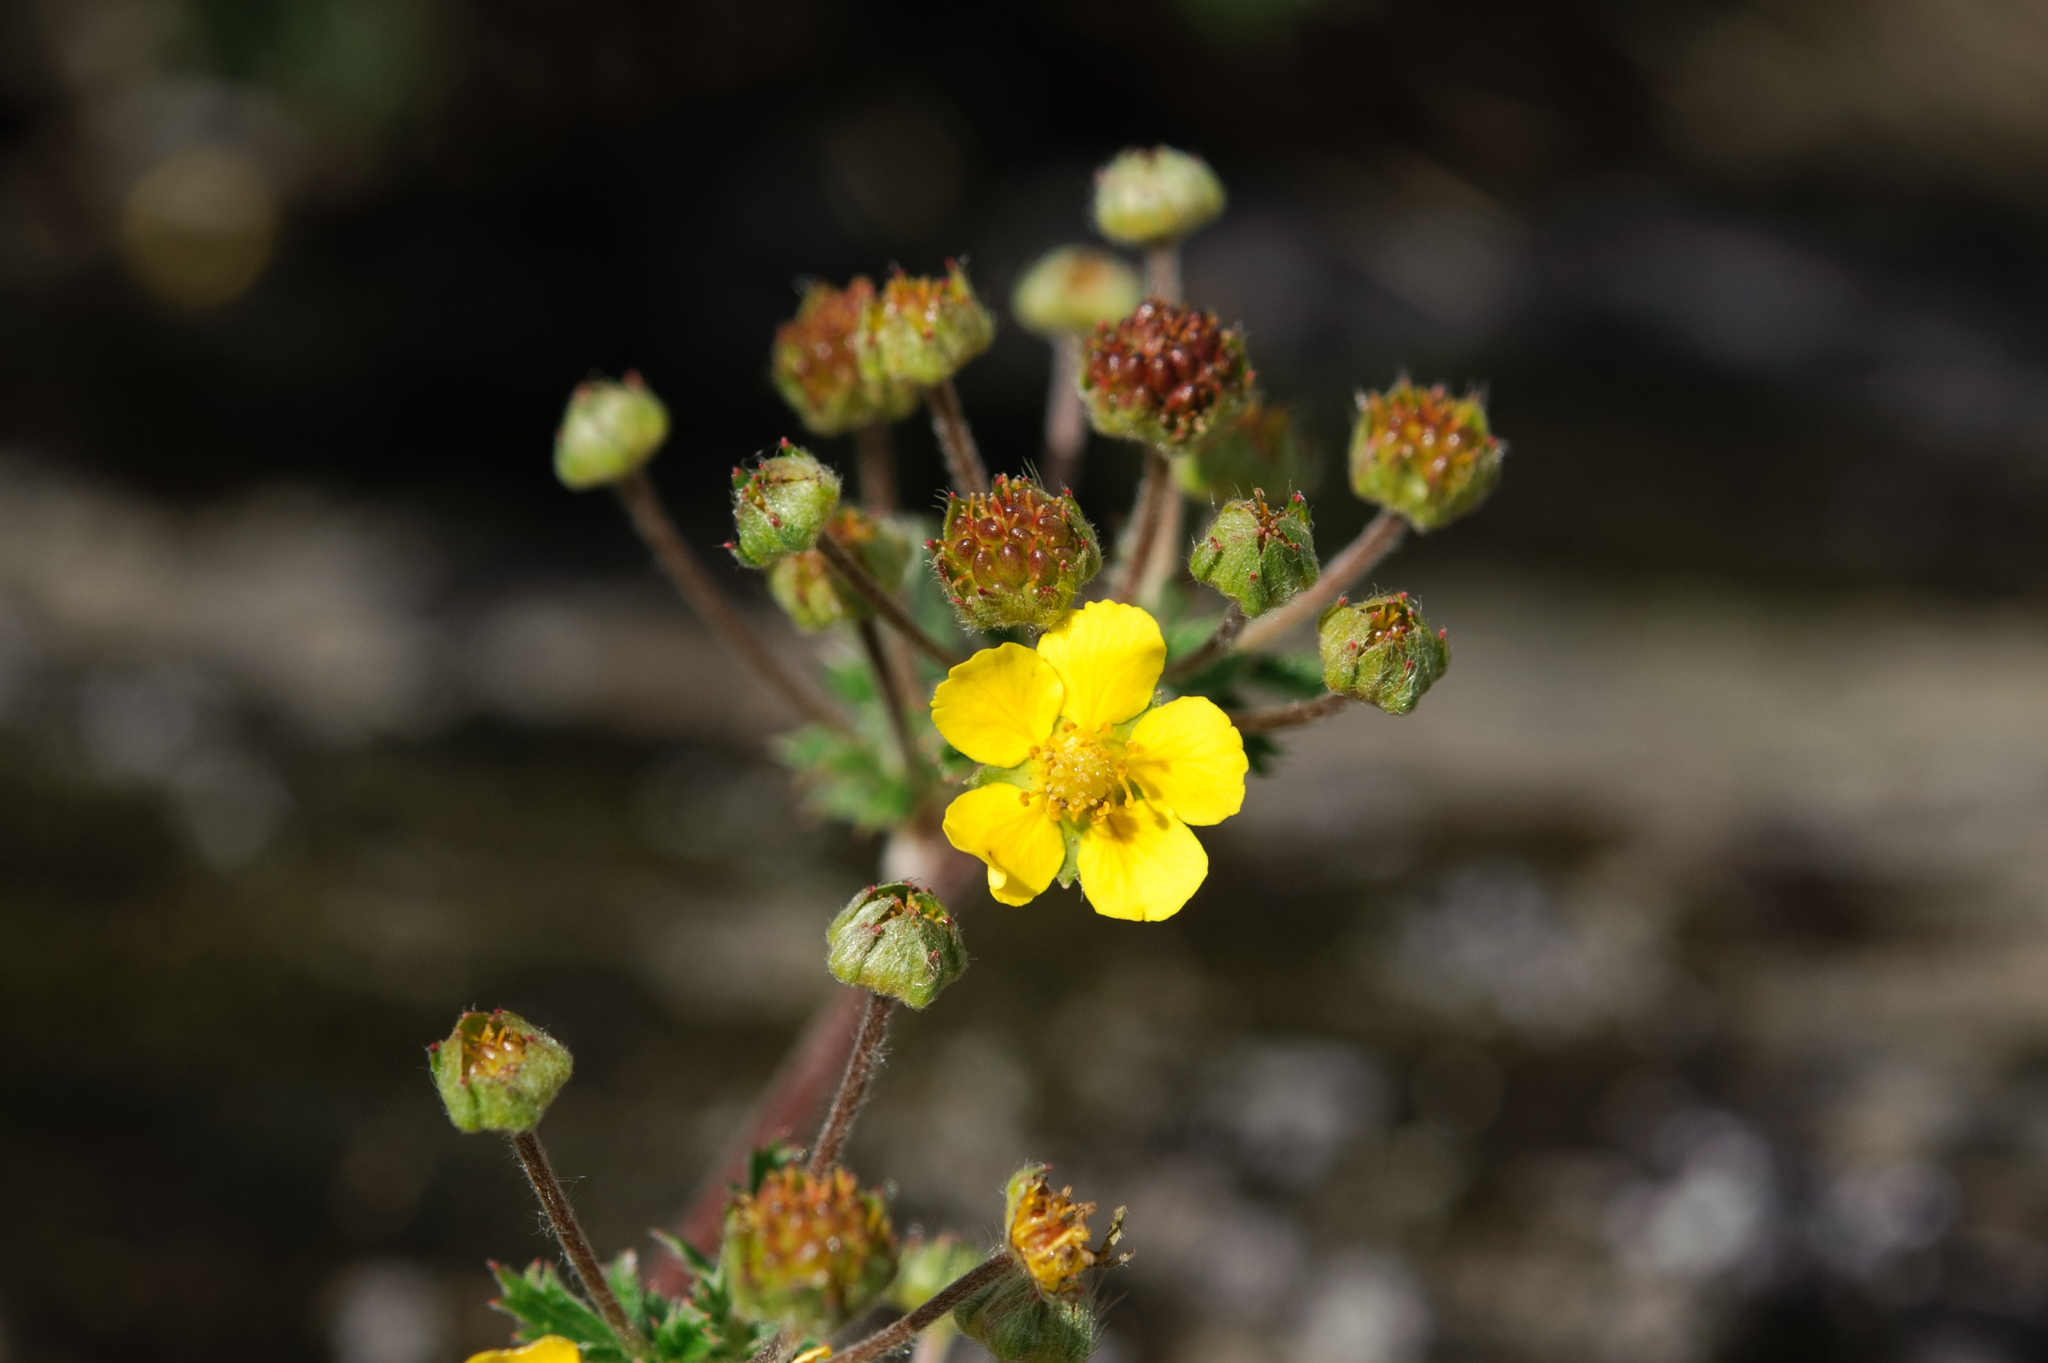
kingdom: Plantae
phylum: Tracheophyta
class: Magnoliopsida
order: Rosales
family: Rosaceae
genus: Argentina
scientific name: Argentina leuconota
